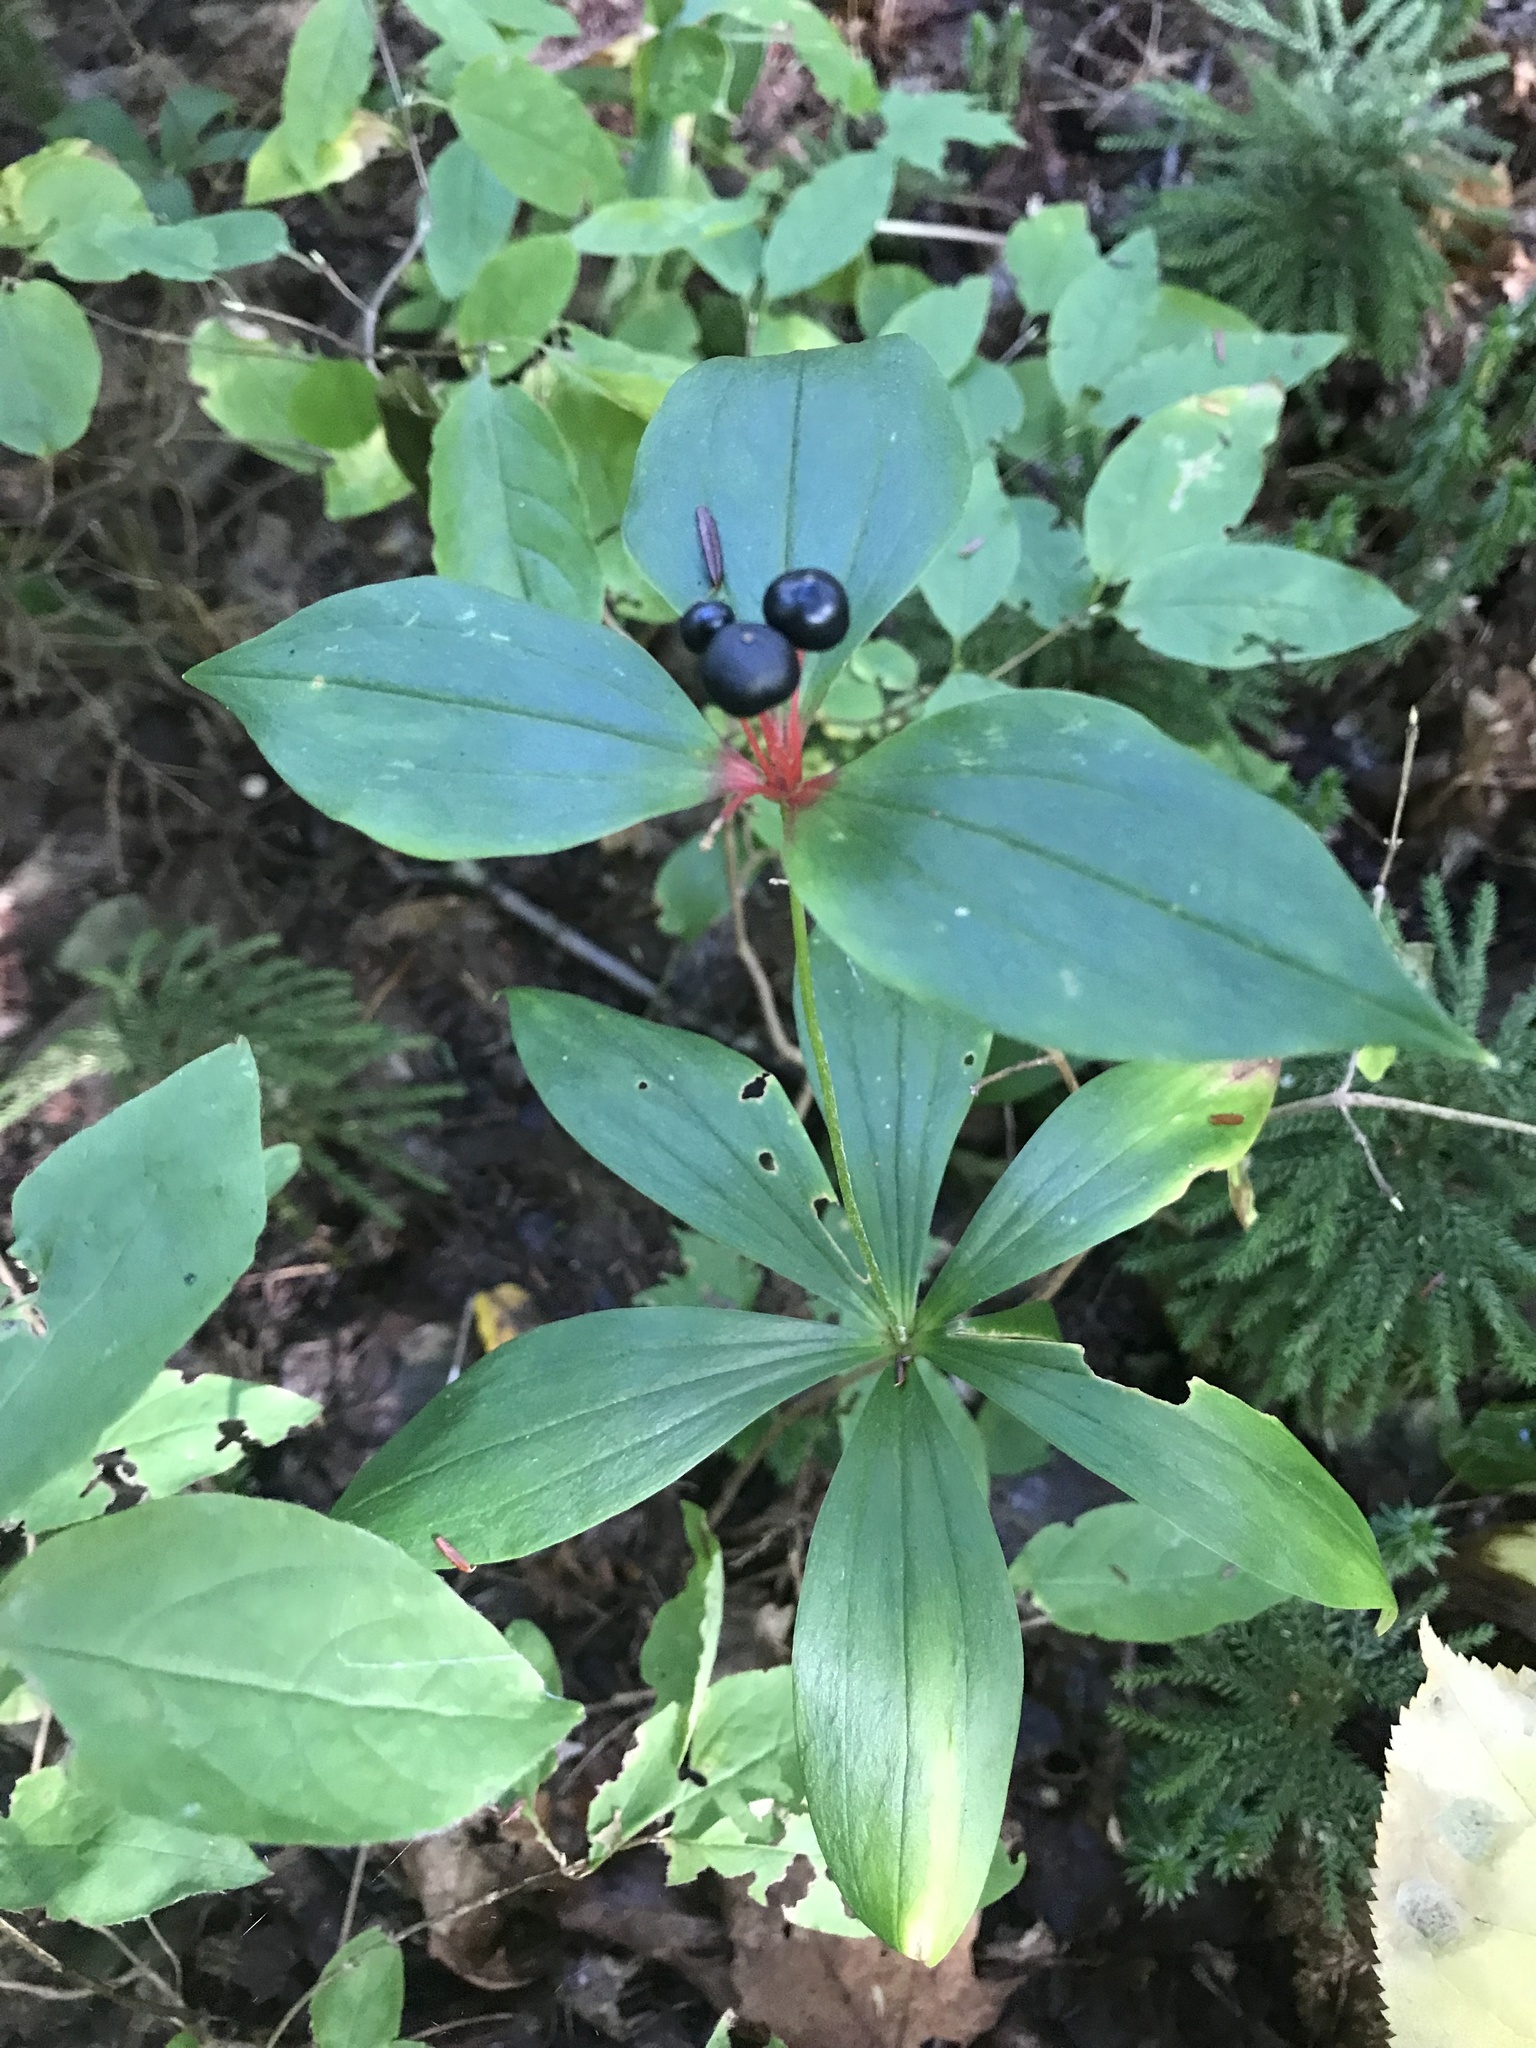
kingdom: Plantae
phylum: Tracheophyta
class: Liliopsida
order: Liliales
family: Liliaceae
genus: Medeola
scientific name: Medeola virginiana
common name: Indian cucumber-root
